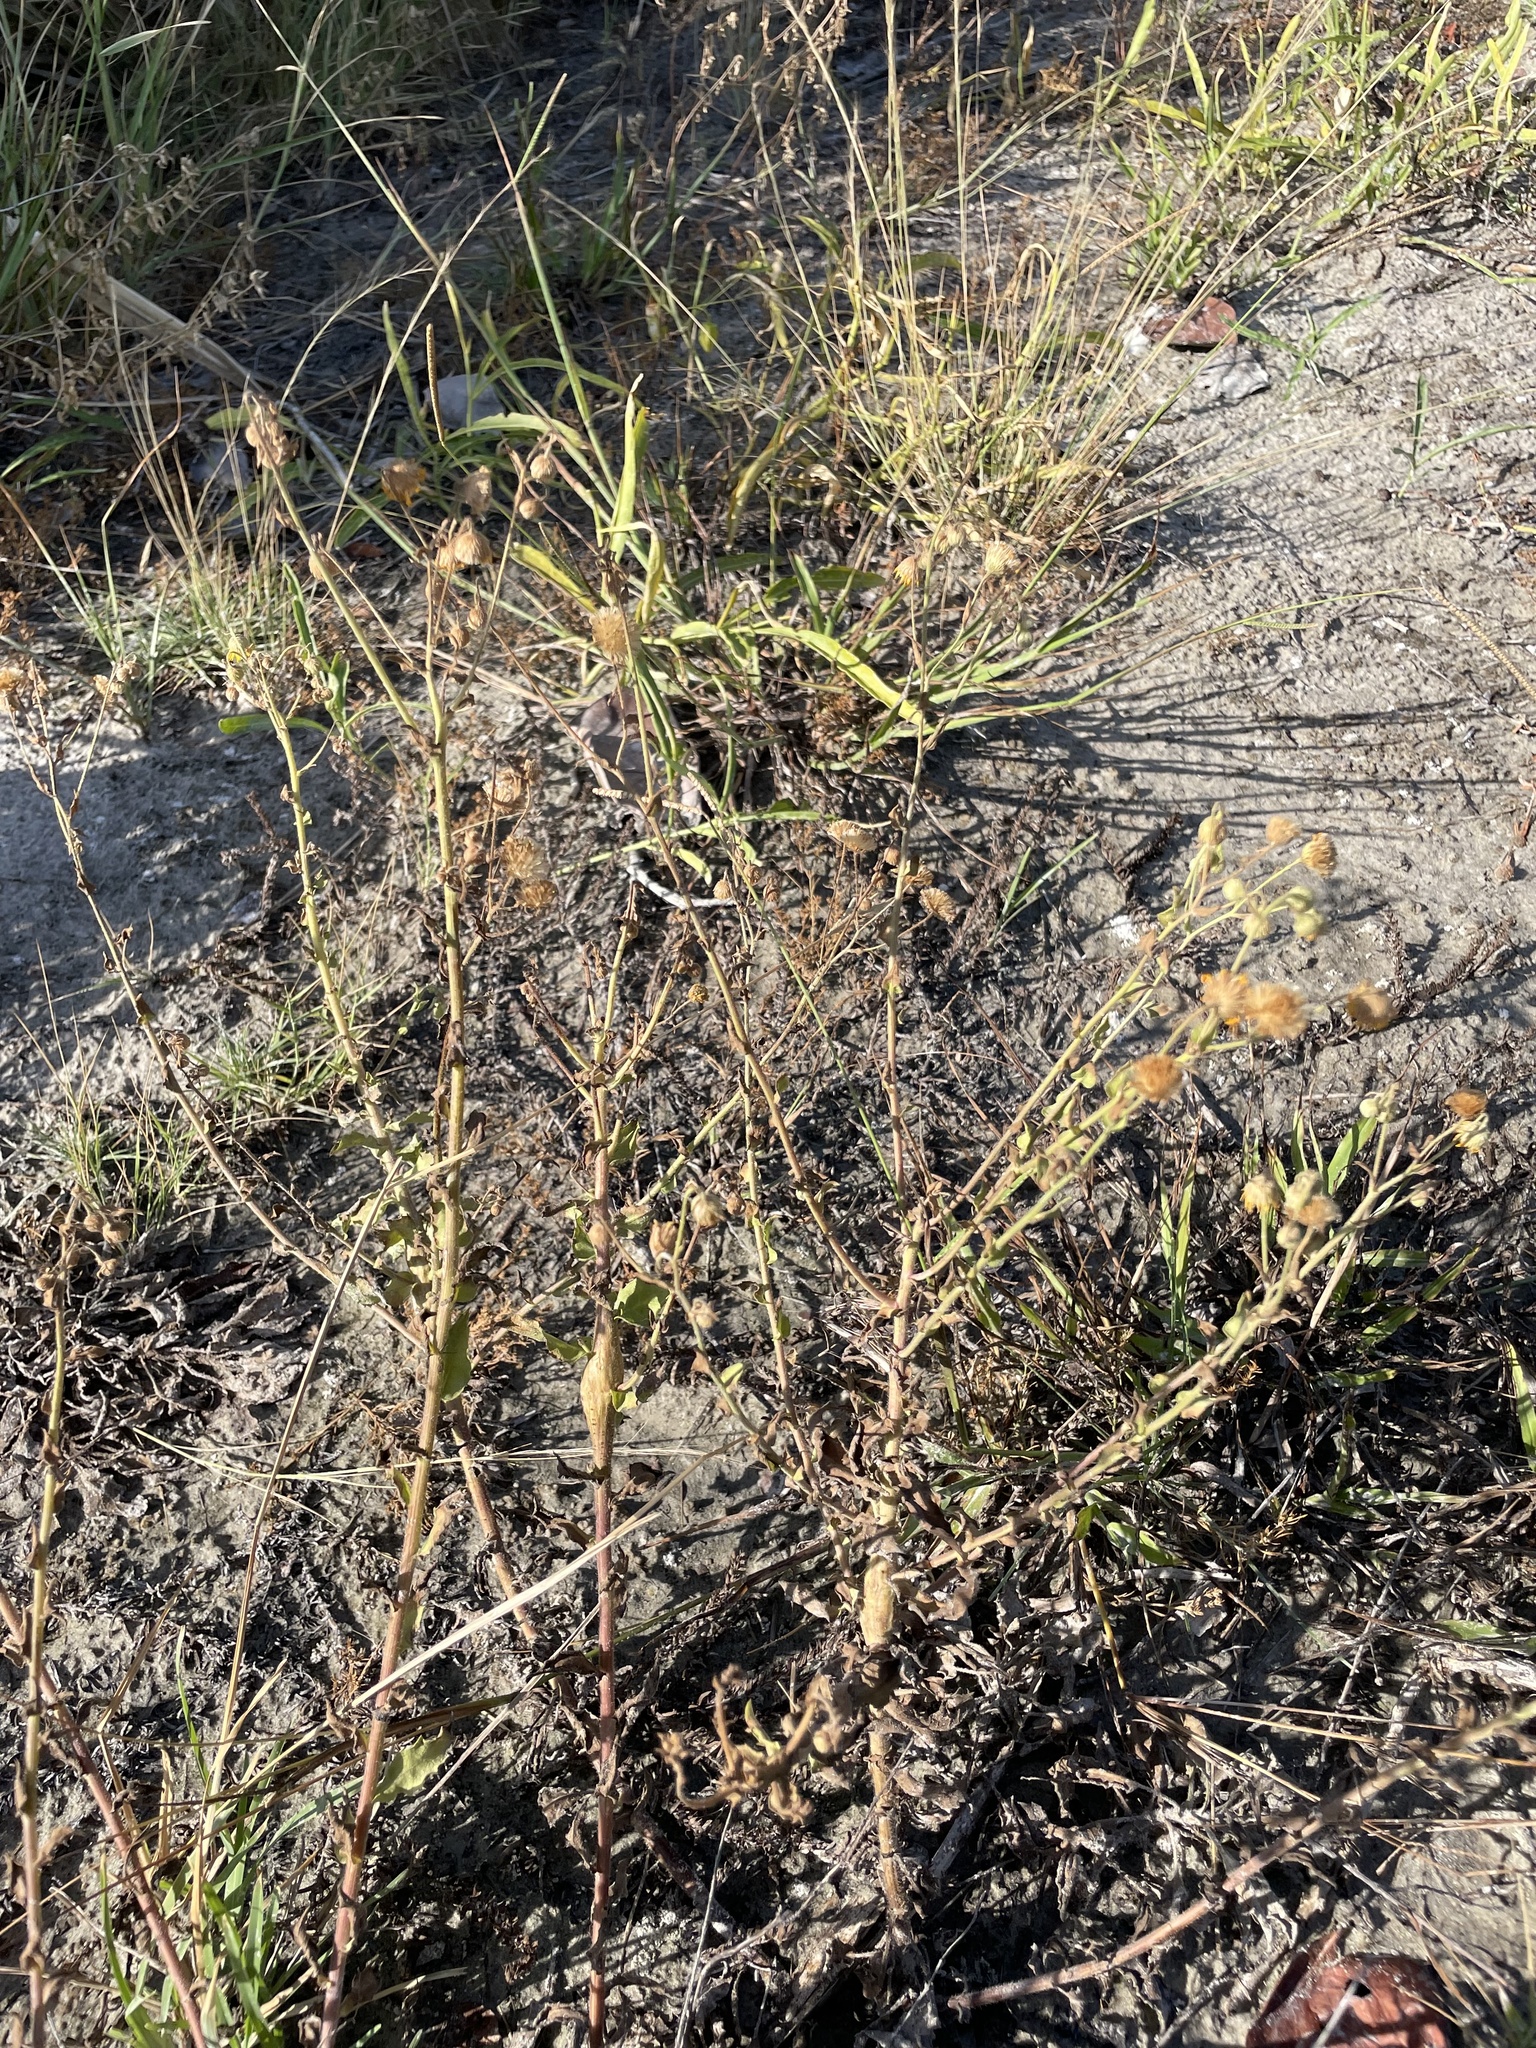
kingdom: Plantae
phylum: Tracheophyta
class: Magnoliopsida
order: Asterales
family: Asteraceae
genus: Heterotheca
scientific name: Heterotheca subaxillaris
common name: Camphorweed
